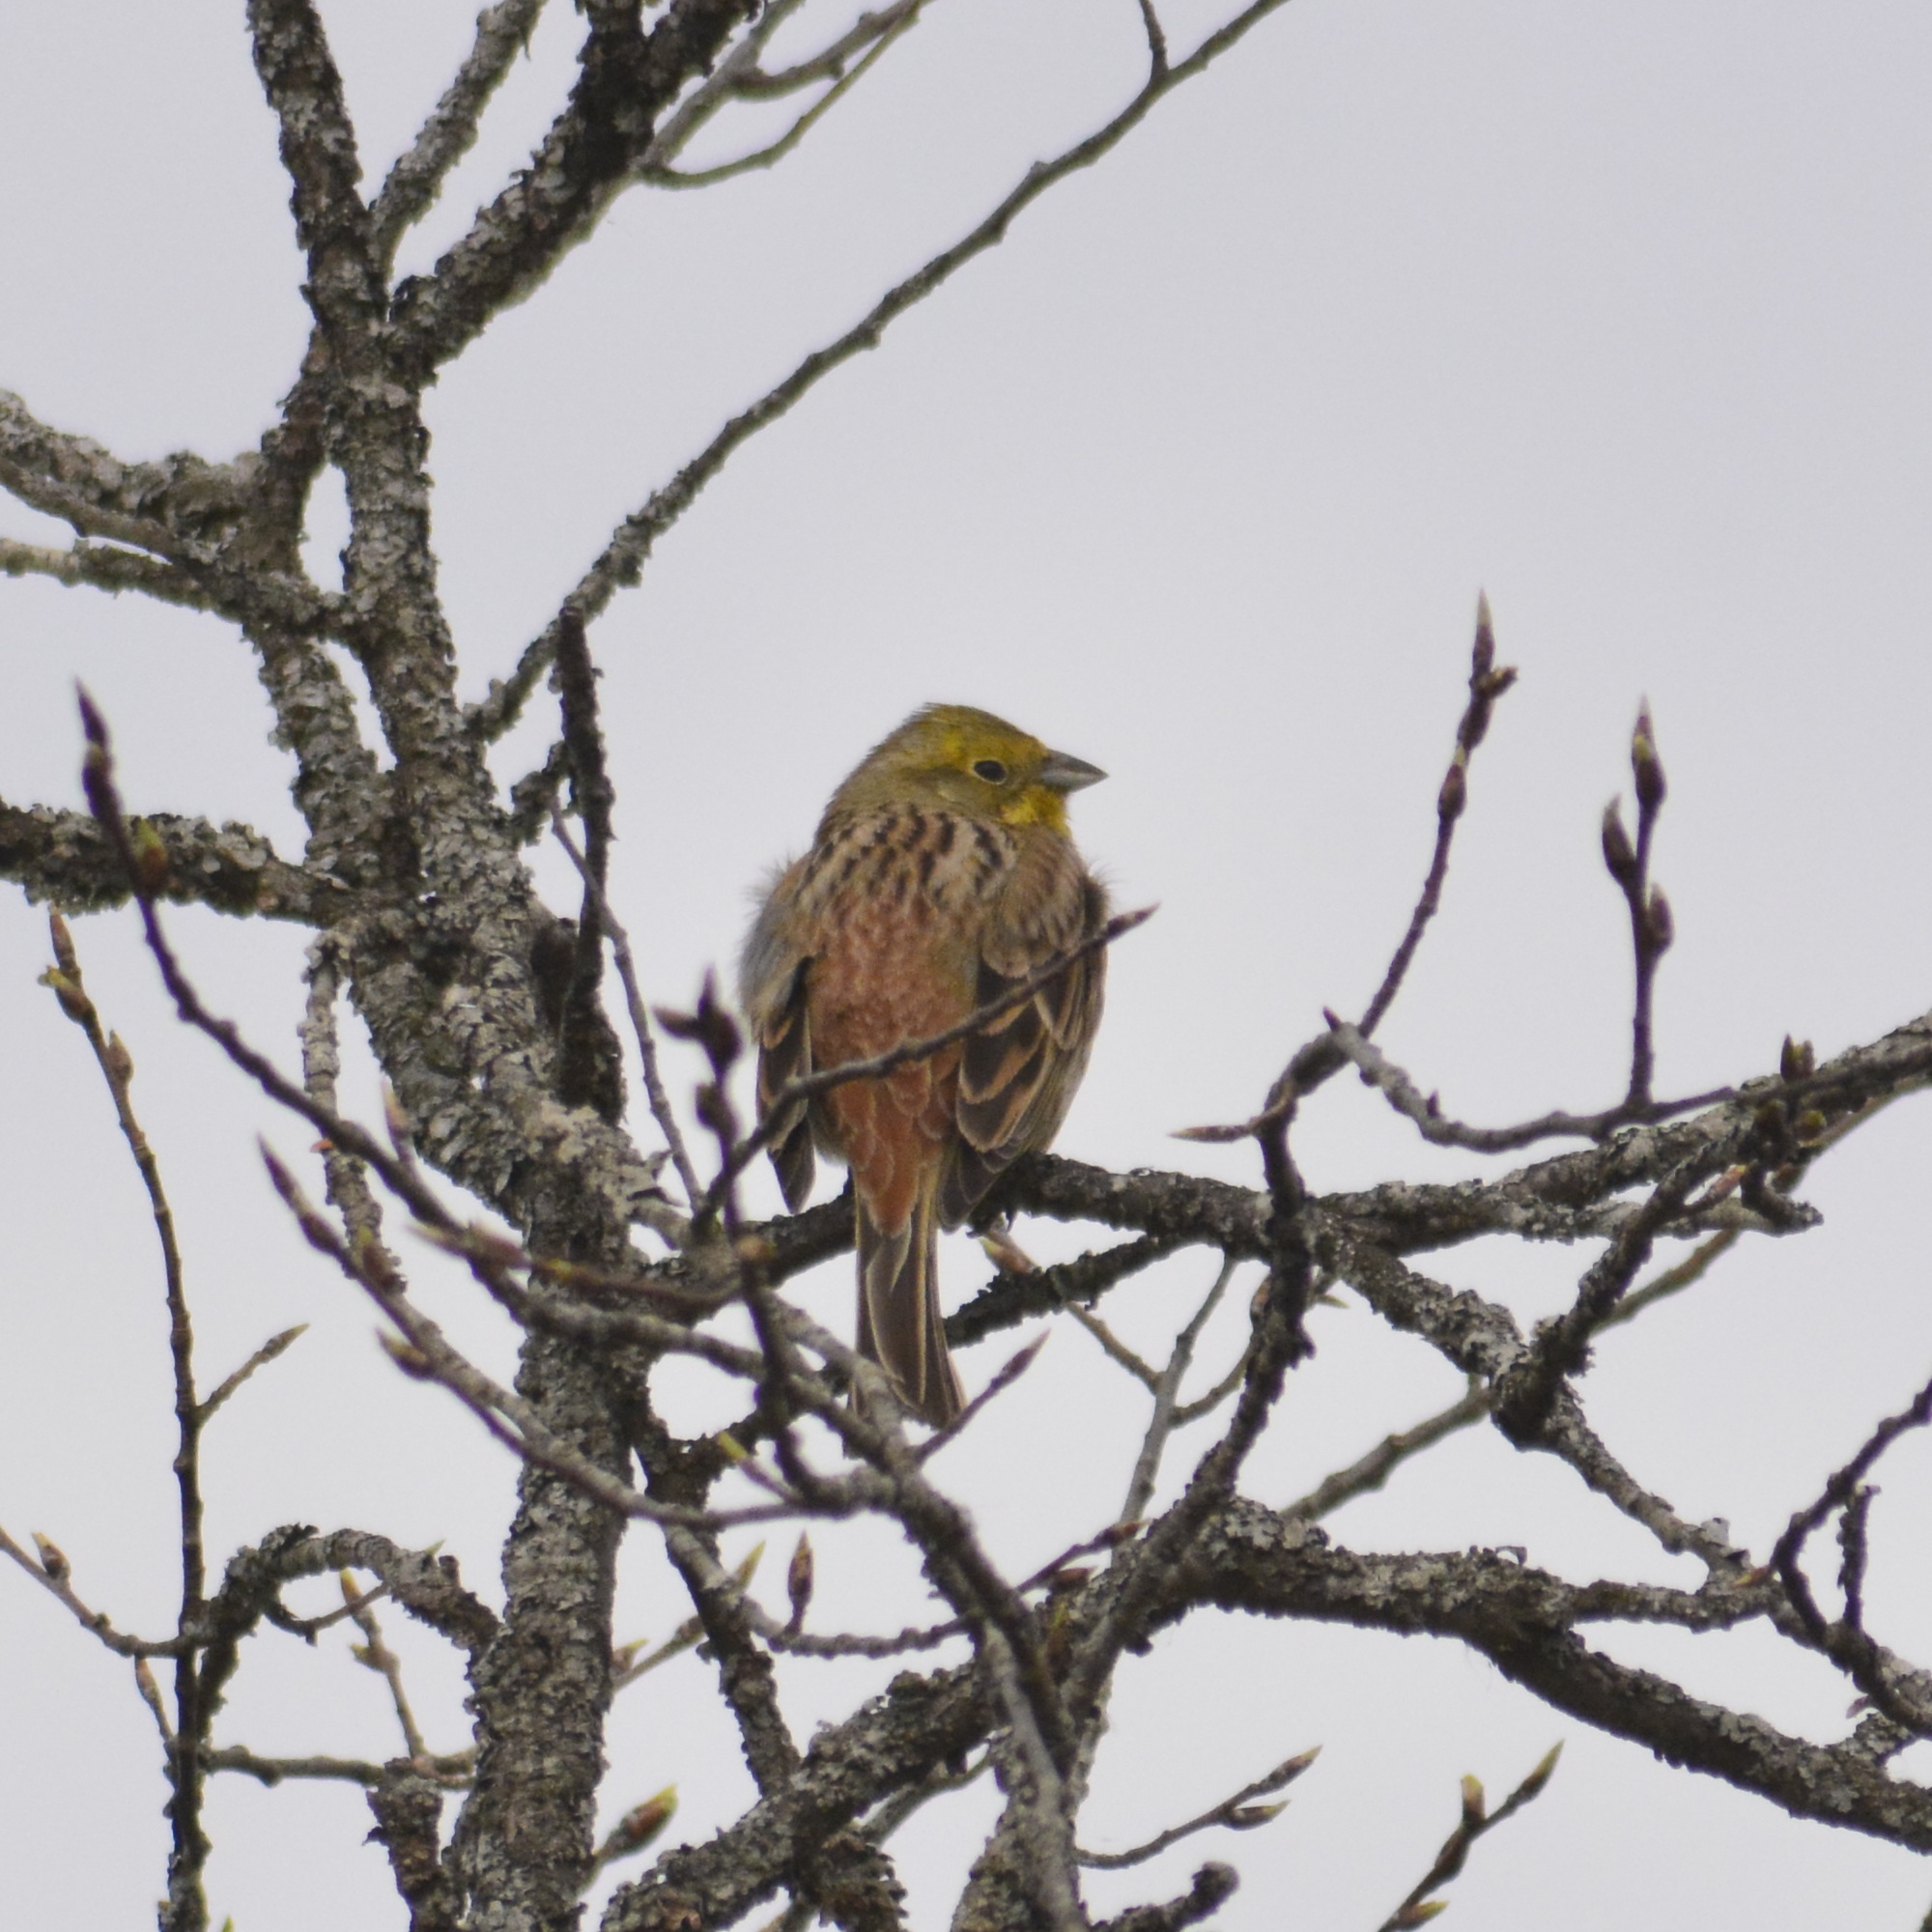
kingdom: Animalia
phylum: Chordata
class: Aves
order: Passeriformes
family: Emberizidae
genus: Emberiza
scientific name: Emberiza citrinella
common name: Yellowhammer
